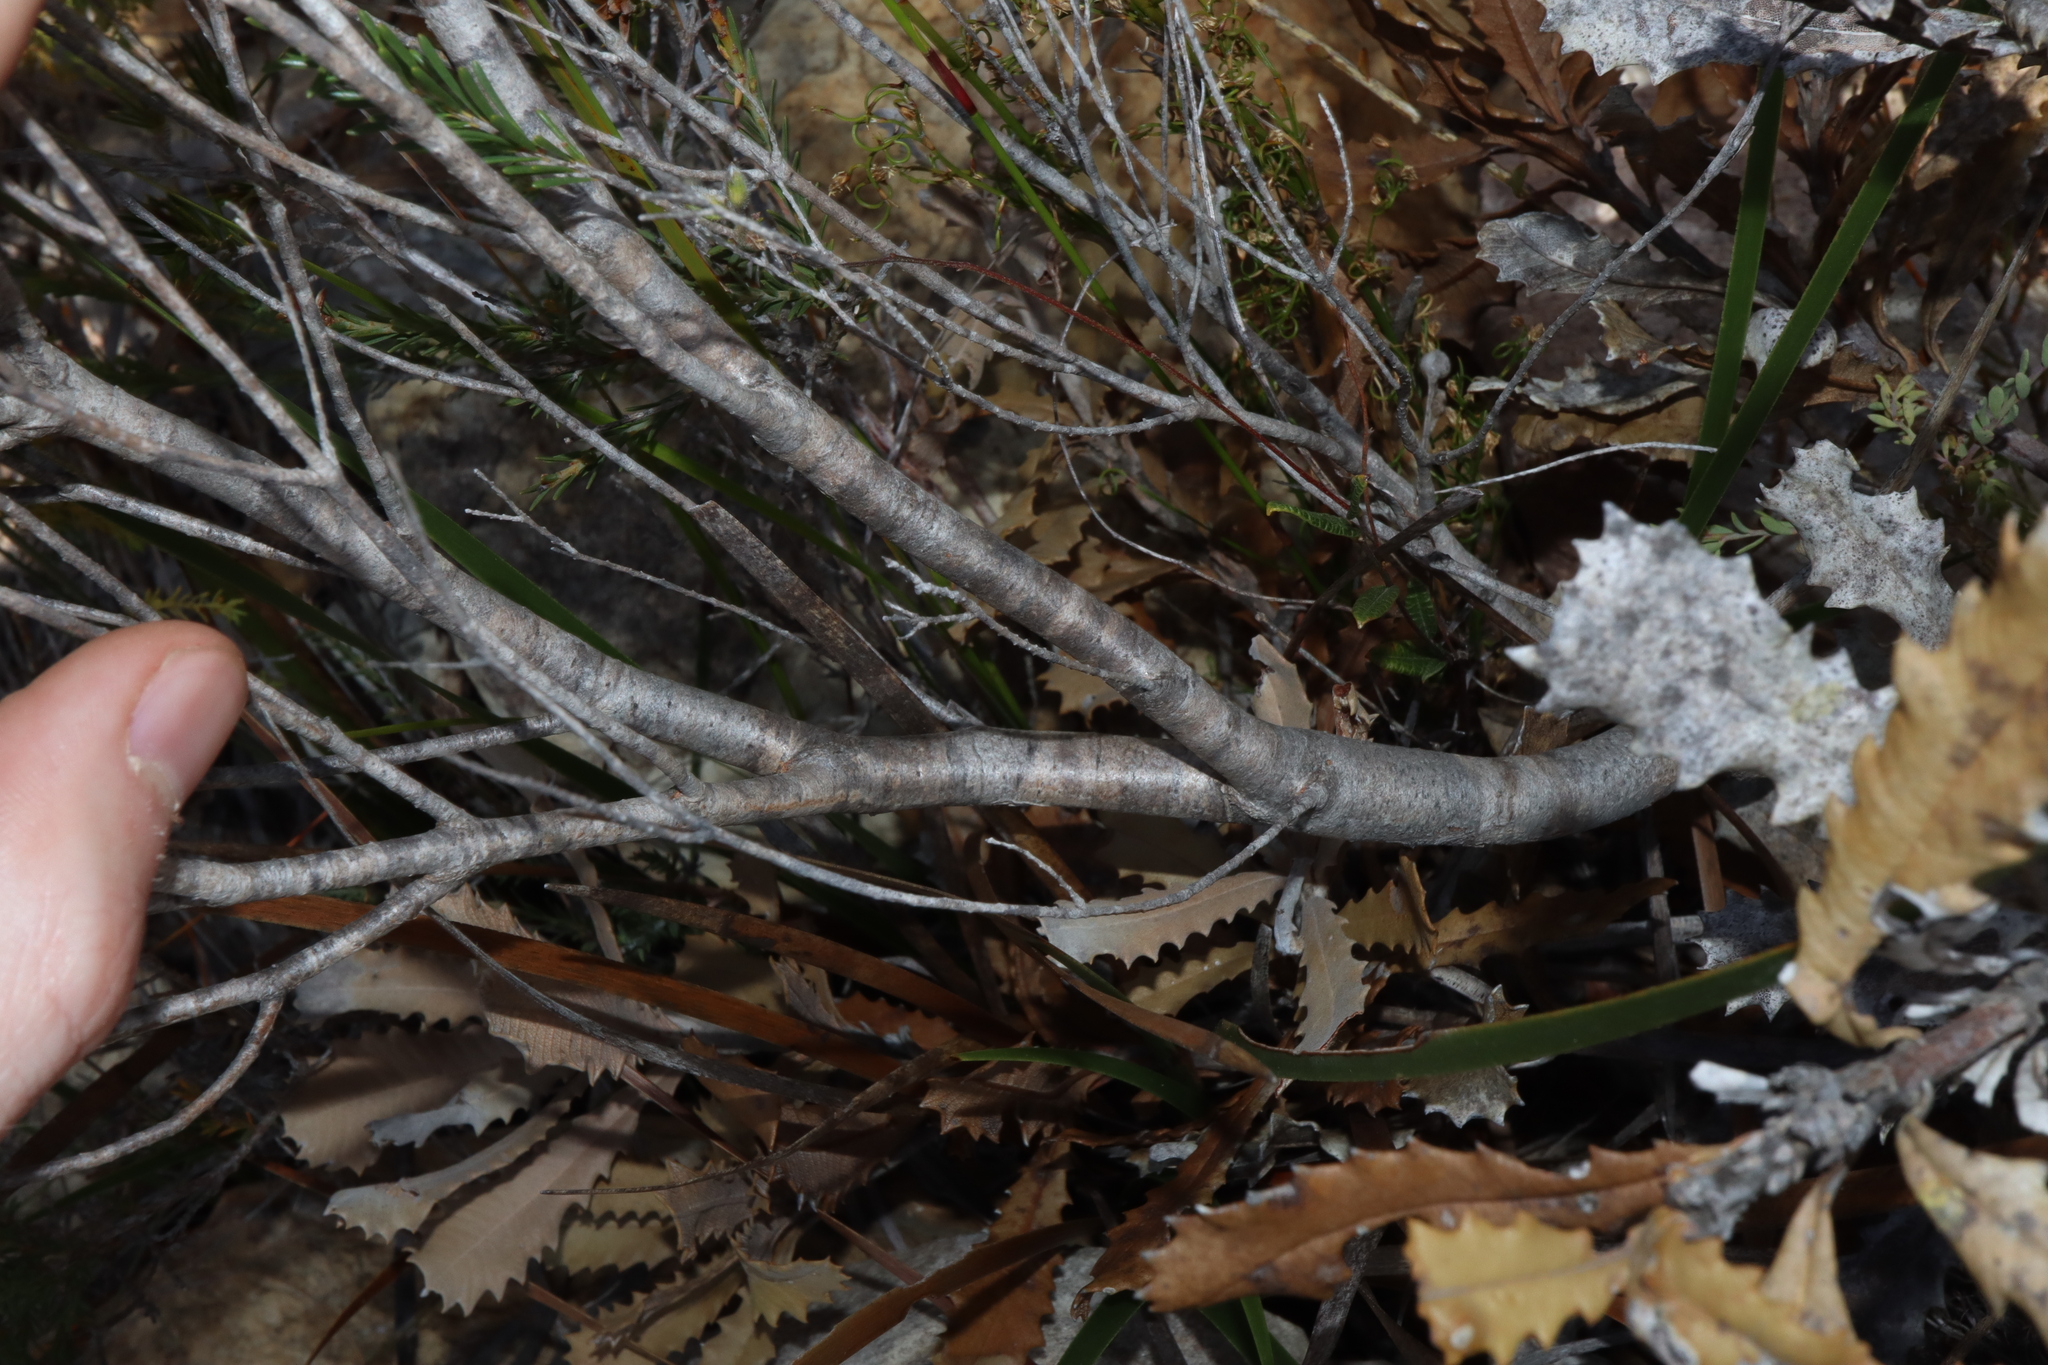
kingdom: Plantae
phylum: Tracheophyta
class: Magnoliopsida
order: Myrtales
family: Myrtaceae
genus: Melaleuca
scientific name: Melaleuca lutea
